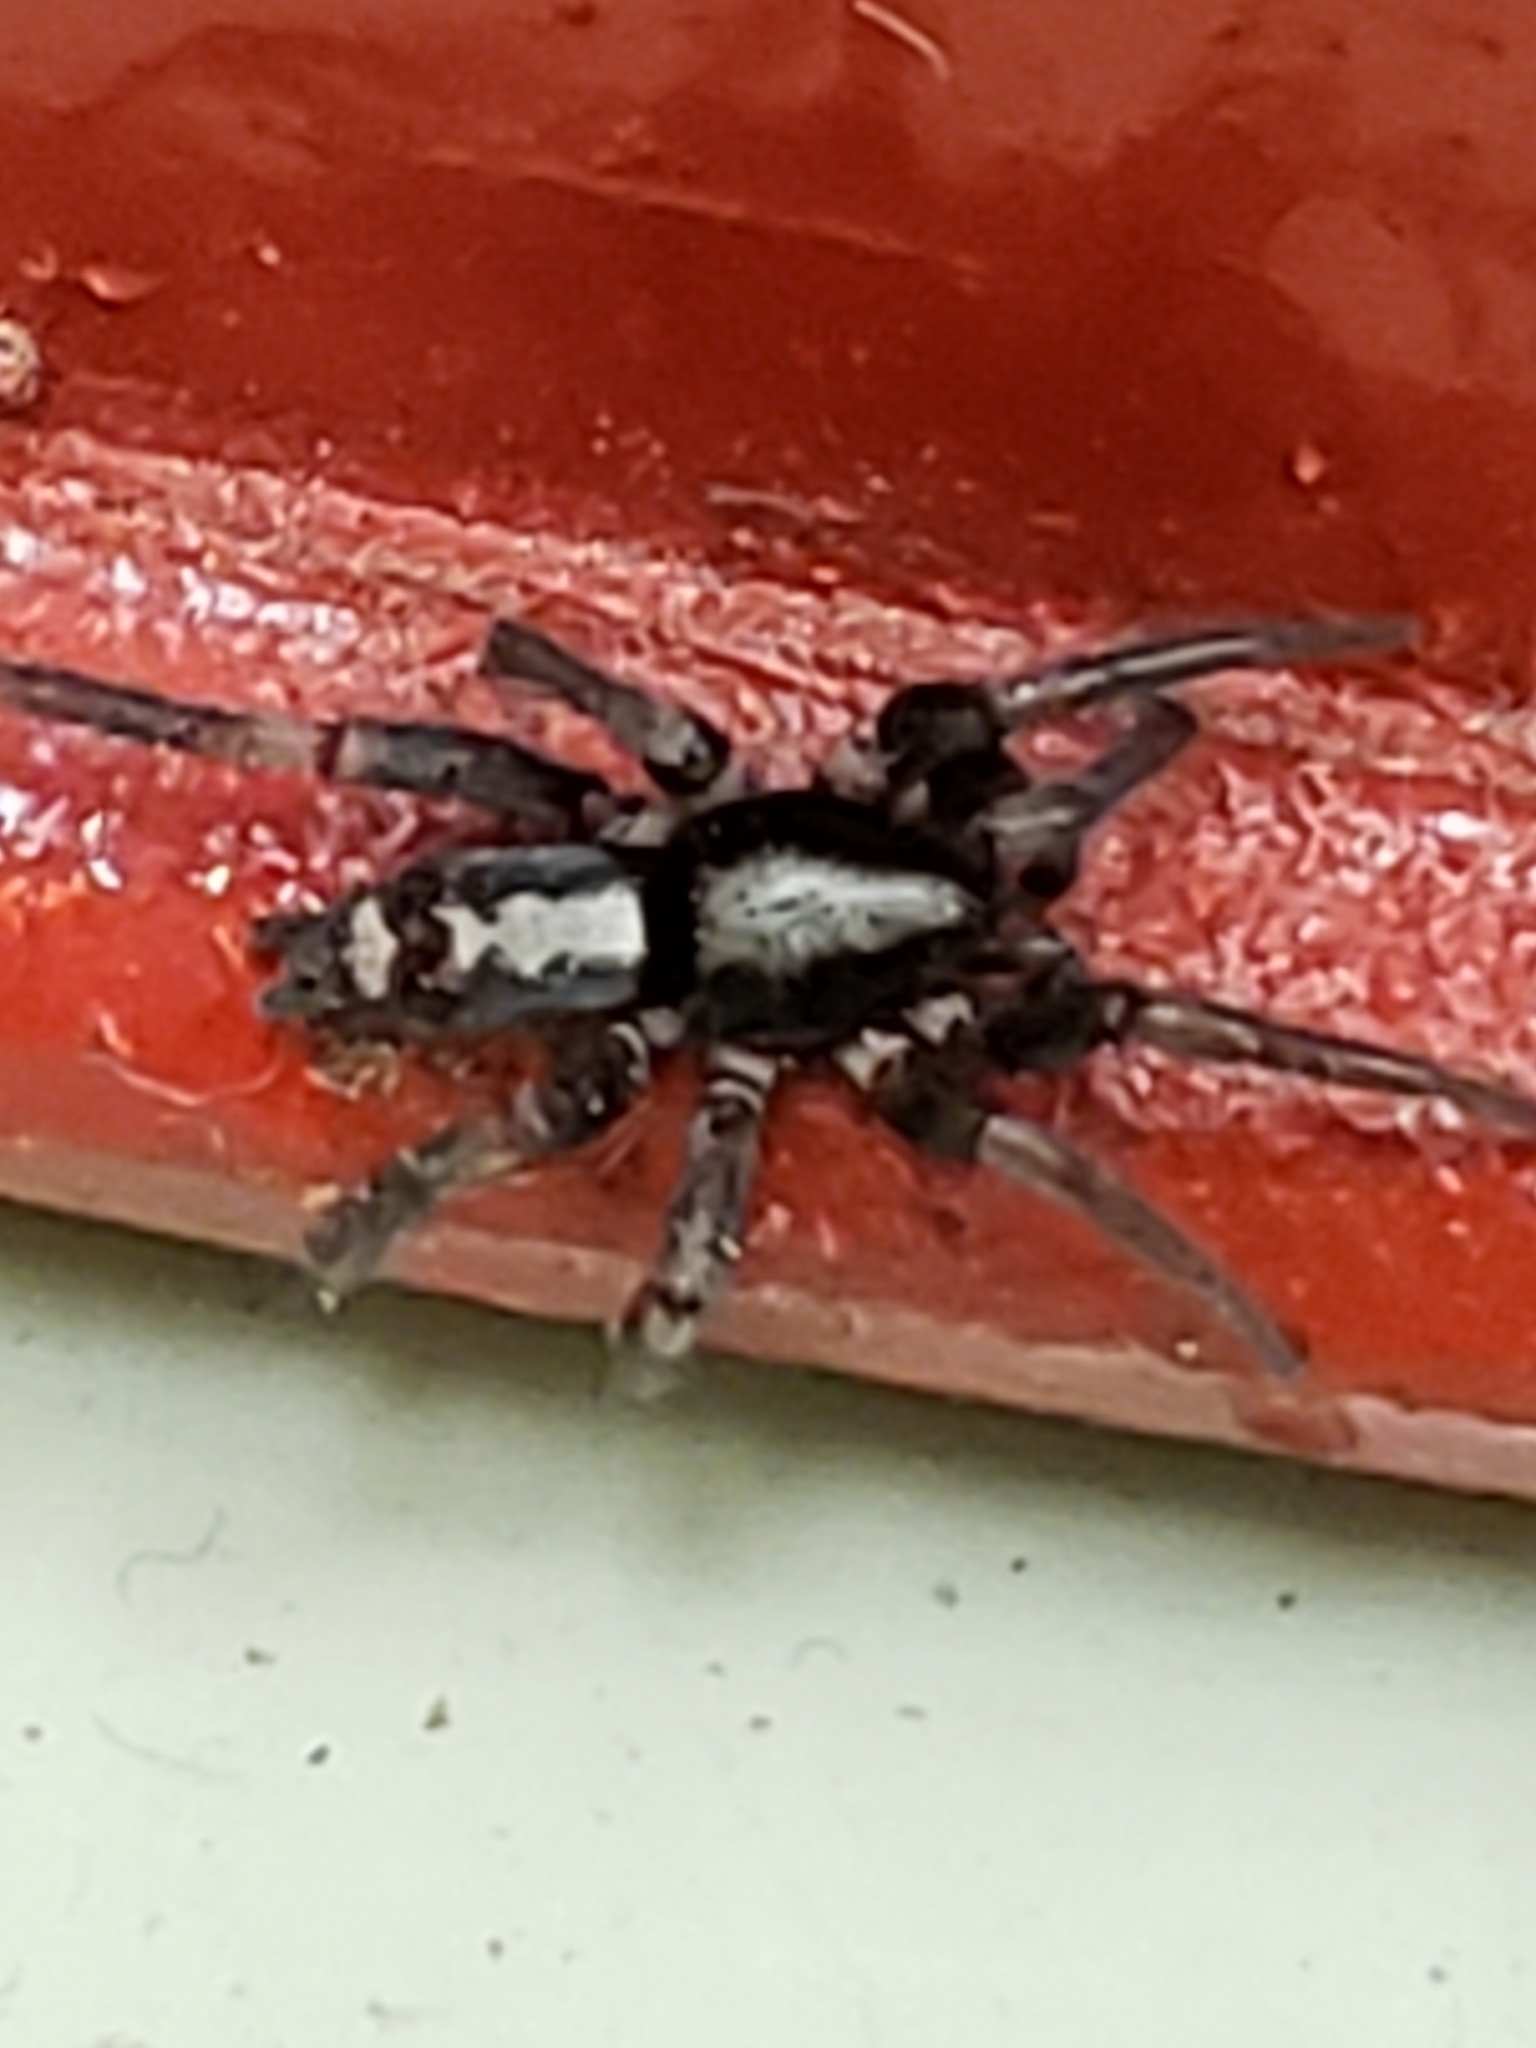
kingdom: Animalia
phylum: Arthropoda
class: Arachnida
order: Araneae
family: Gnaphosidae
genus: Herpyllus
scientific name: Herpyllus ecclesiasticus
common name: Eastern parson spider
